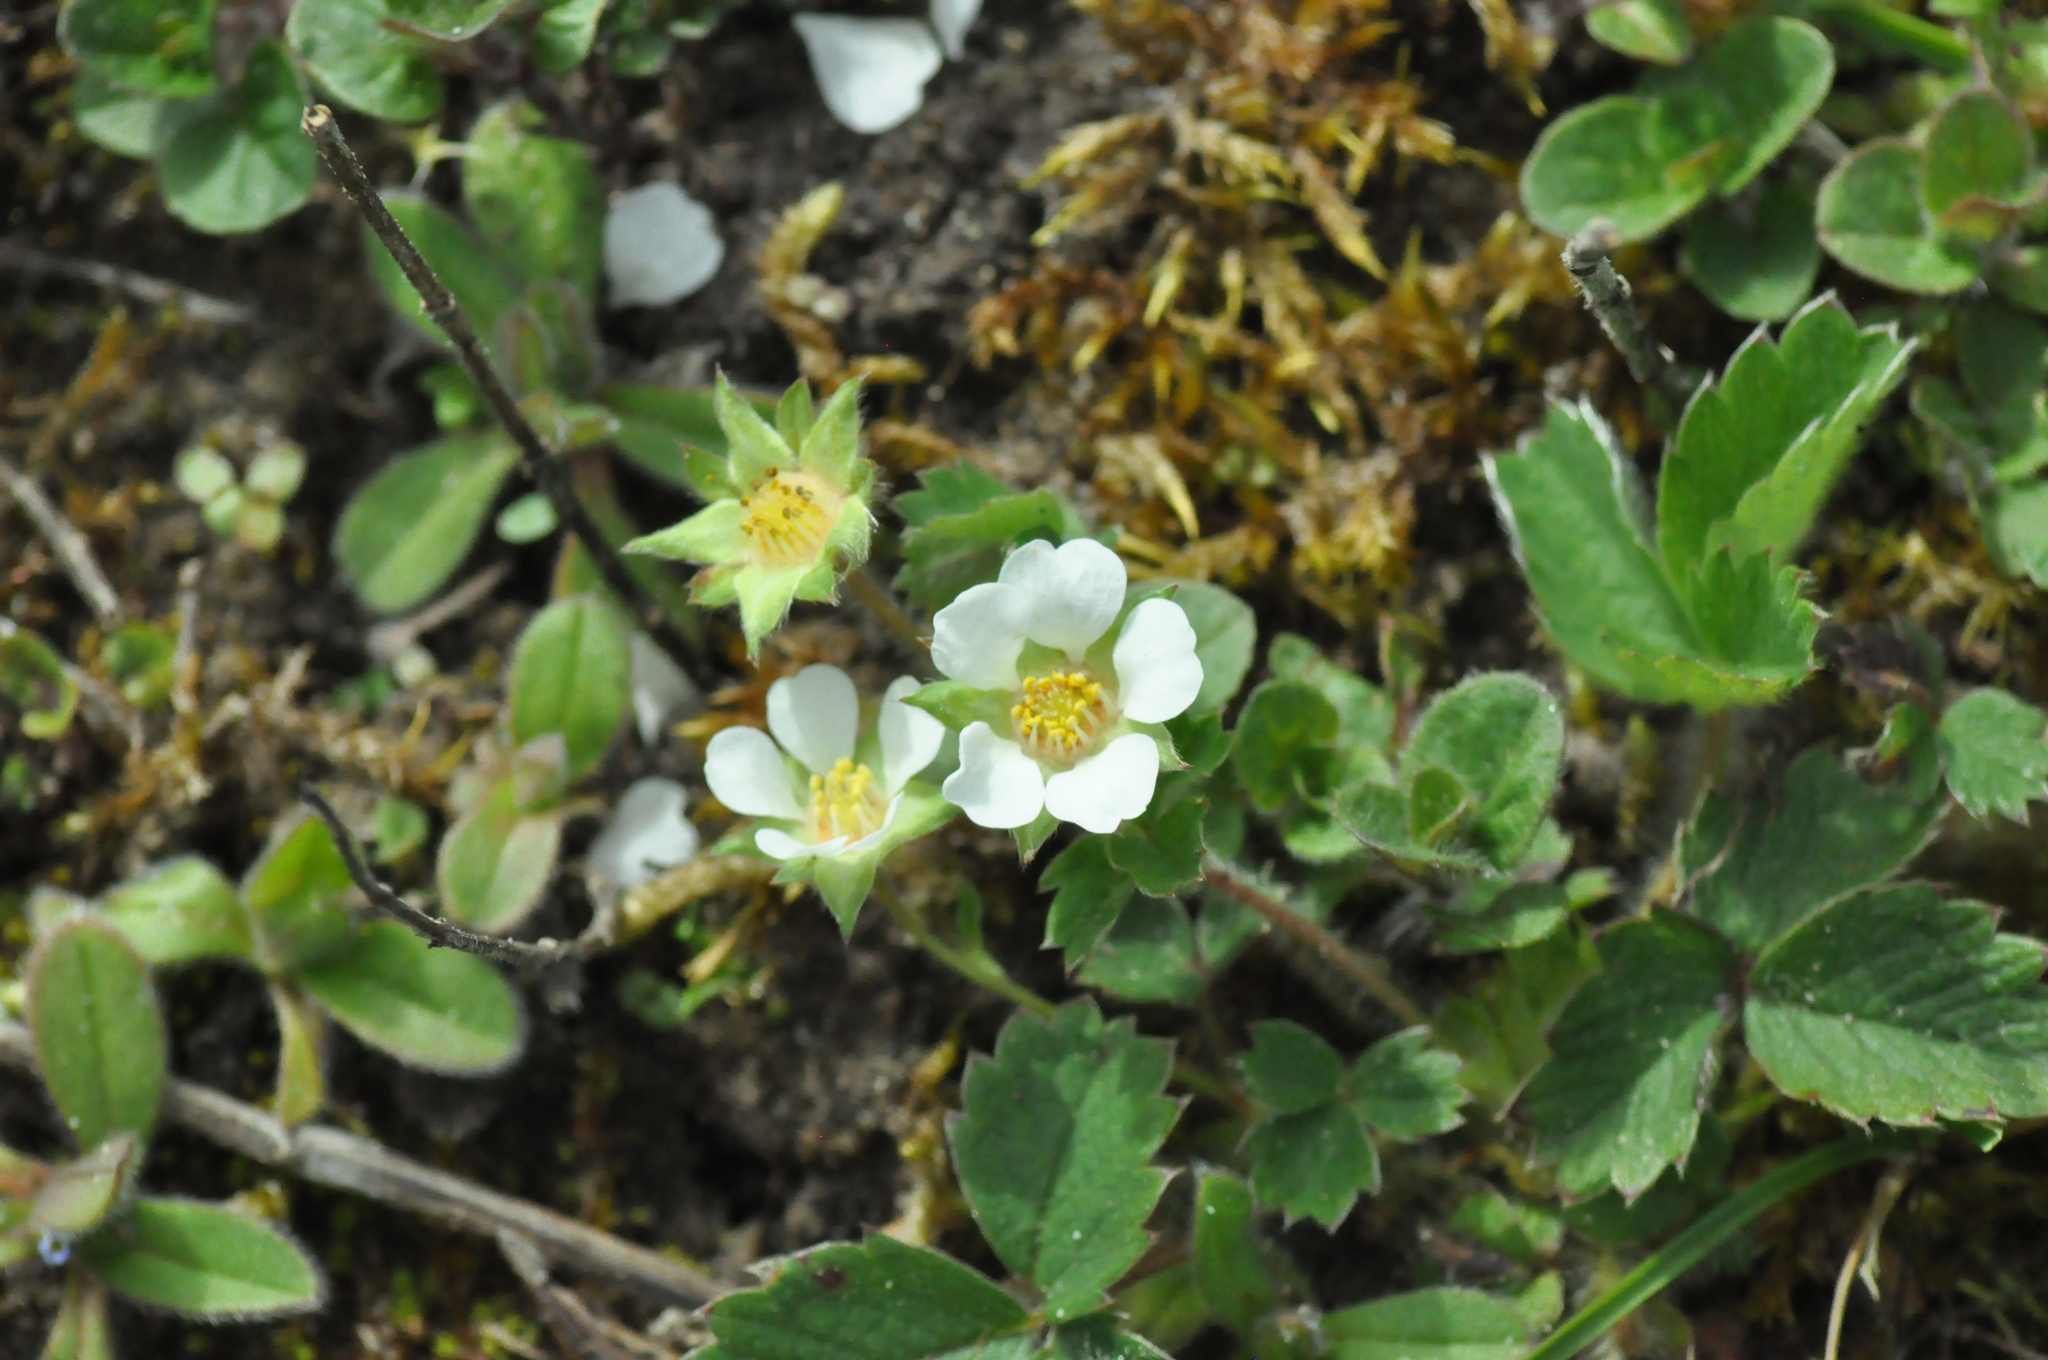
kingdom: Plantae
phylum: Tracheophyta
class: Magnoliopsida
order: Rosales
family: Rosaceae
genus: Potentilla
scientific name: Potentilla sterilis
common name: Barren strawberry
